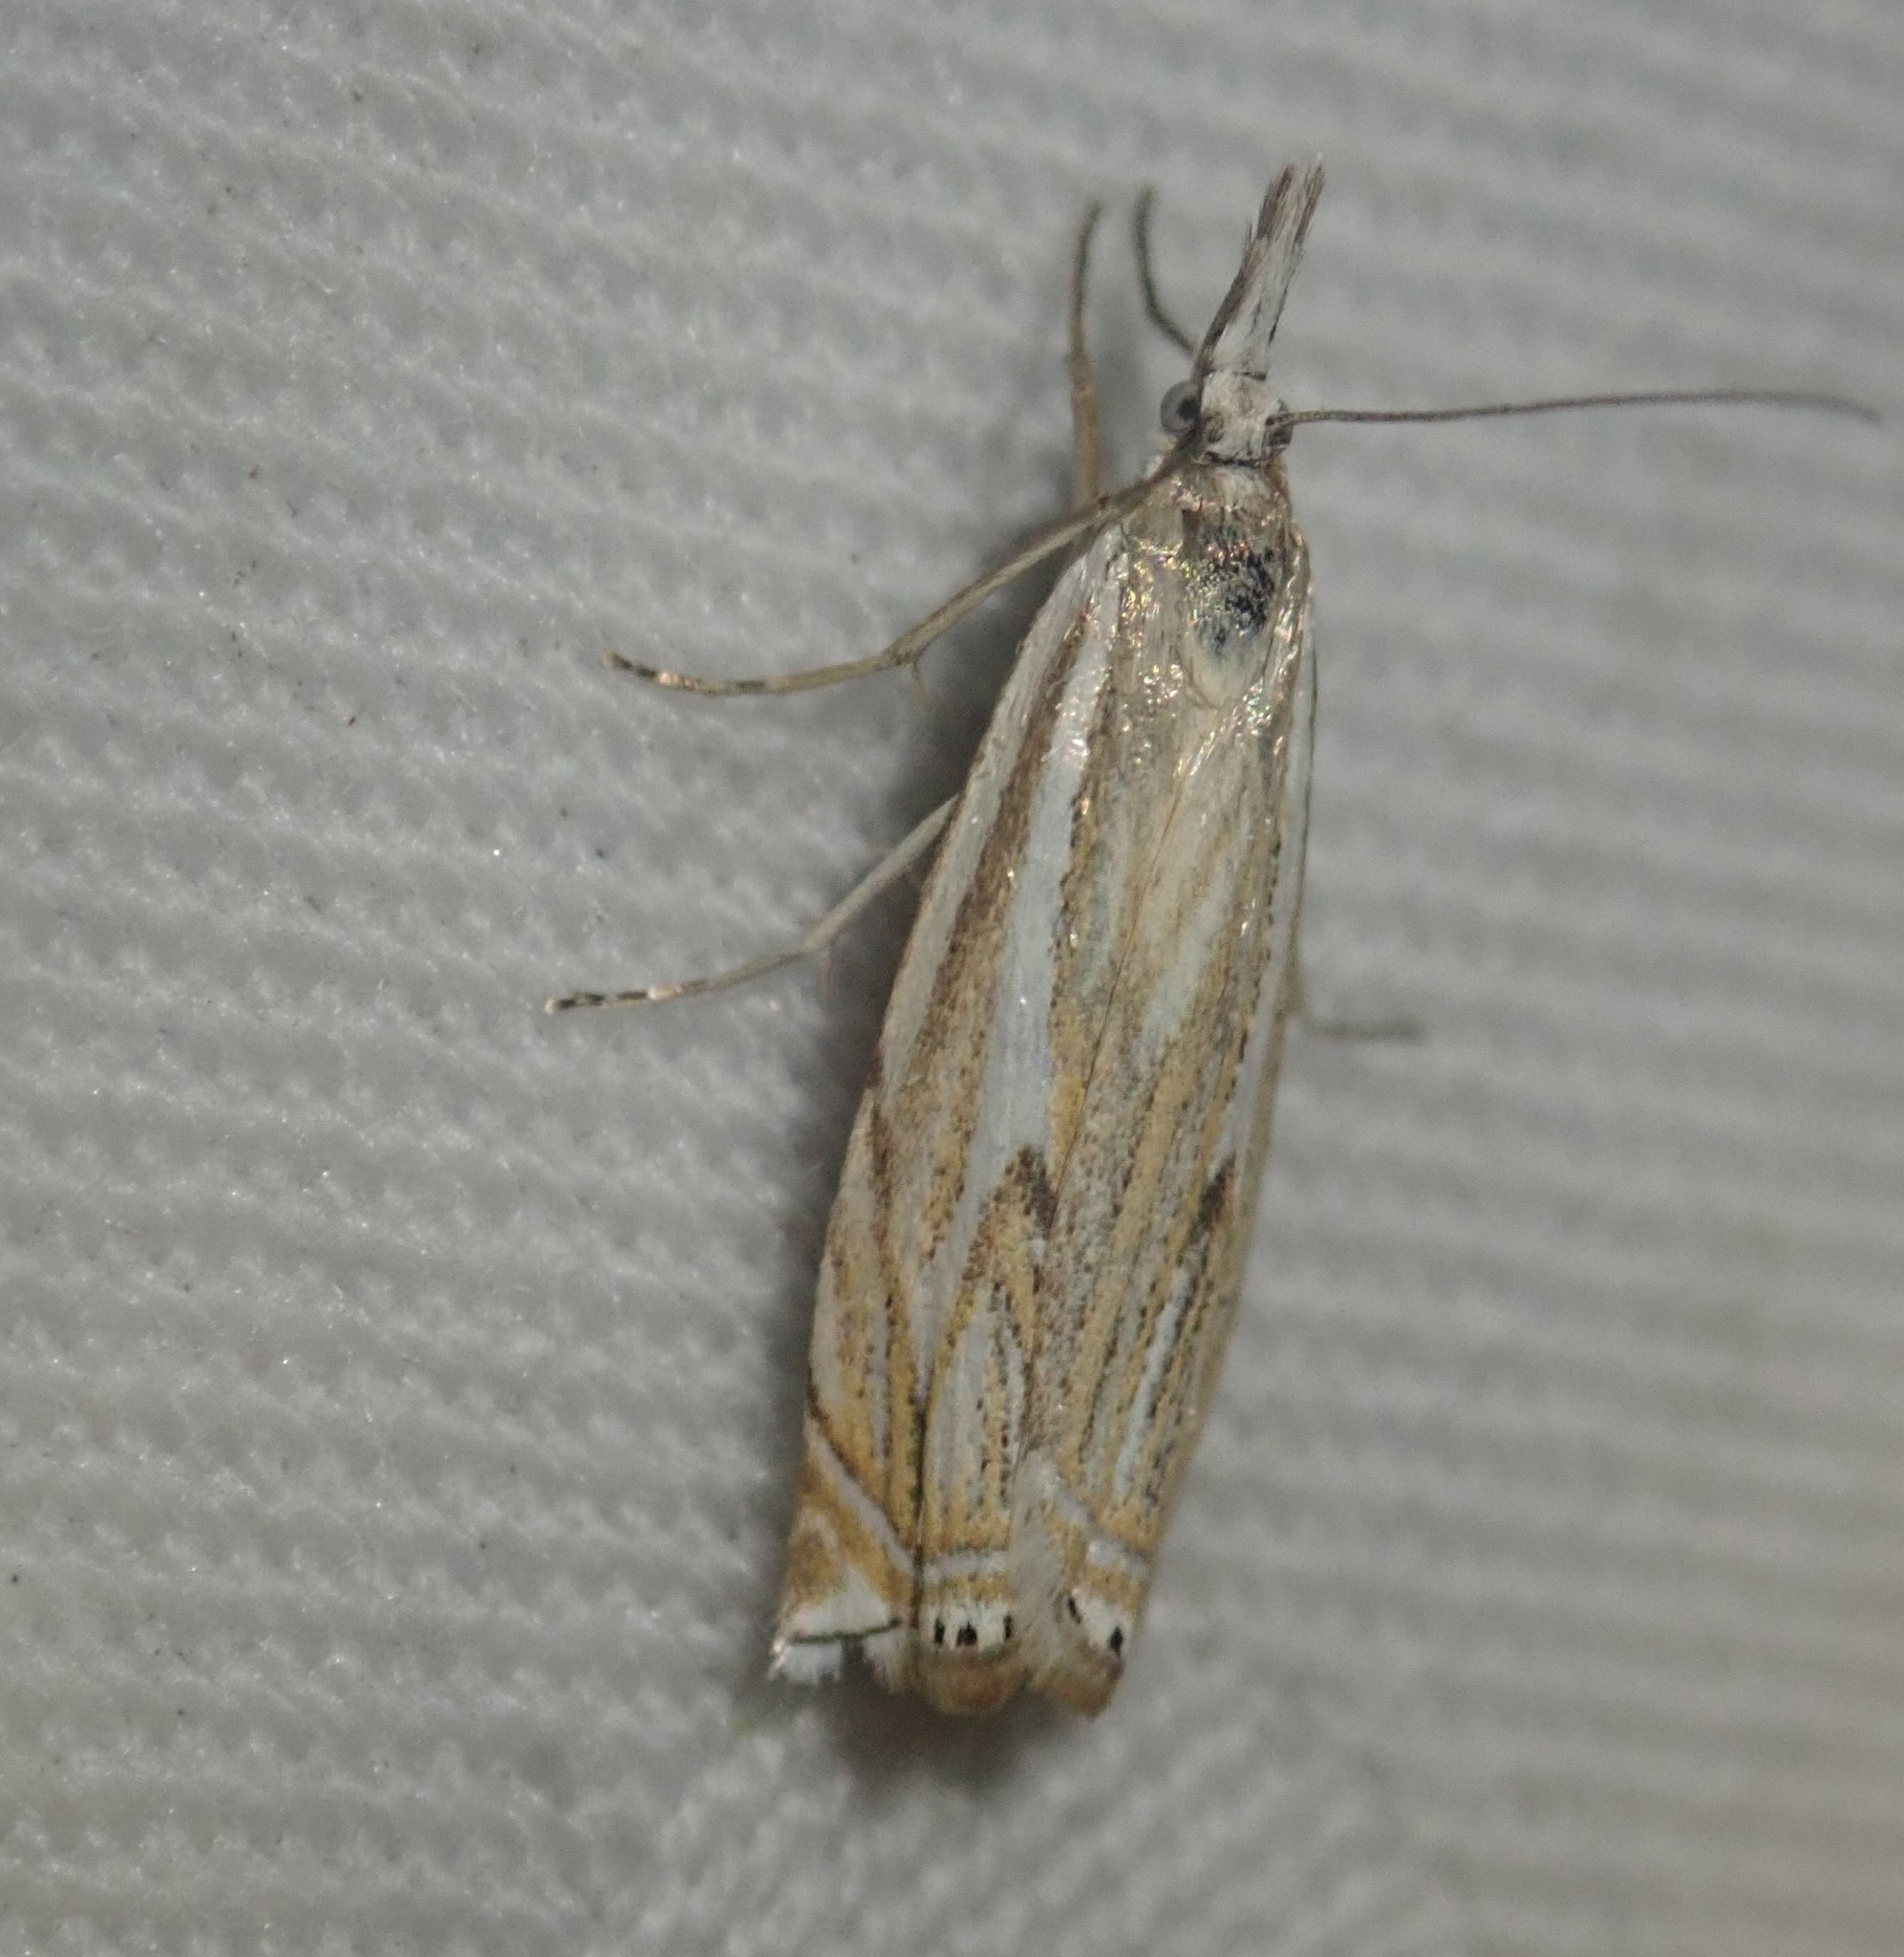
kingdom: Animalia
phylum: Arthropoda
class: Insecta
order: Lepidoptera
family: Crambidae
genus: Crambus
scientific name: Crambus nemorella
